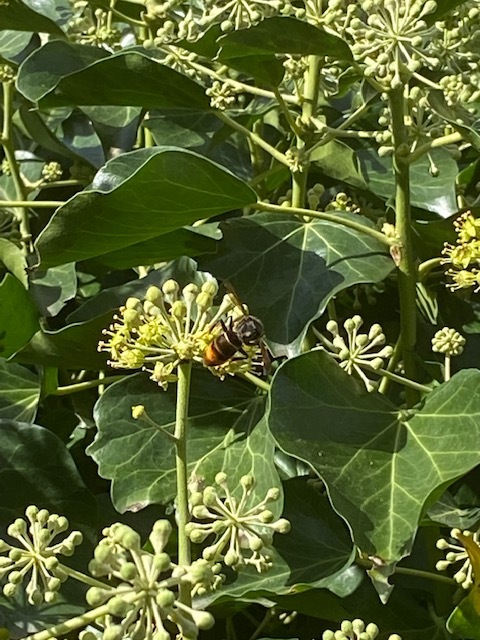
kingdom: Animalia
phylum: Arthropoda
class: Insecta
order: Hymenoptera
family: Vespidae
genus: Vespa
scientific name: Vespa velutina
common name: Asian hornet
